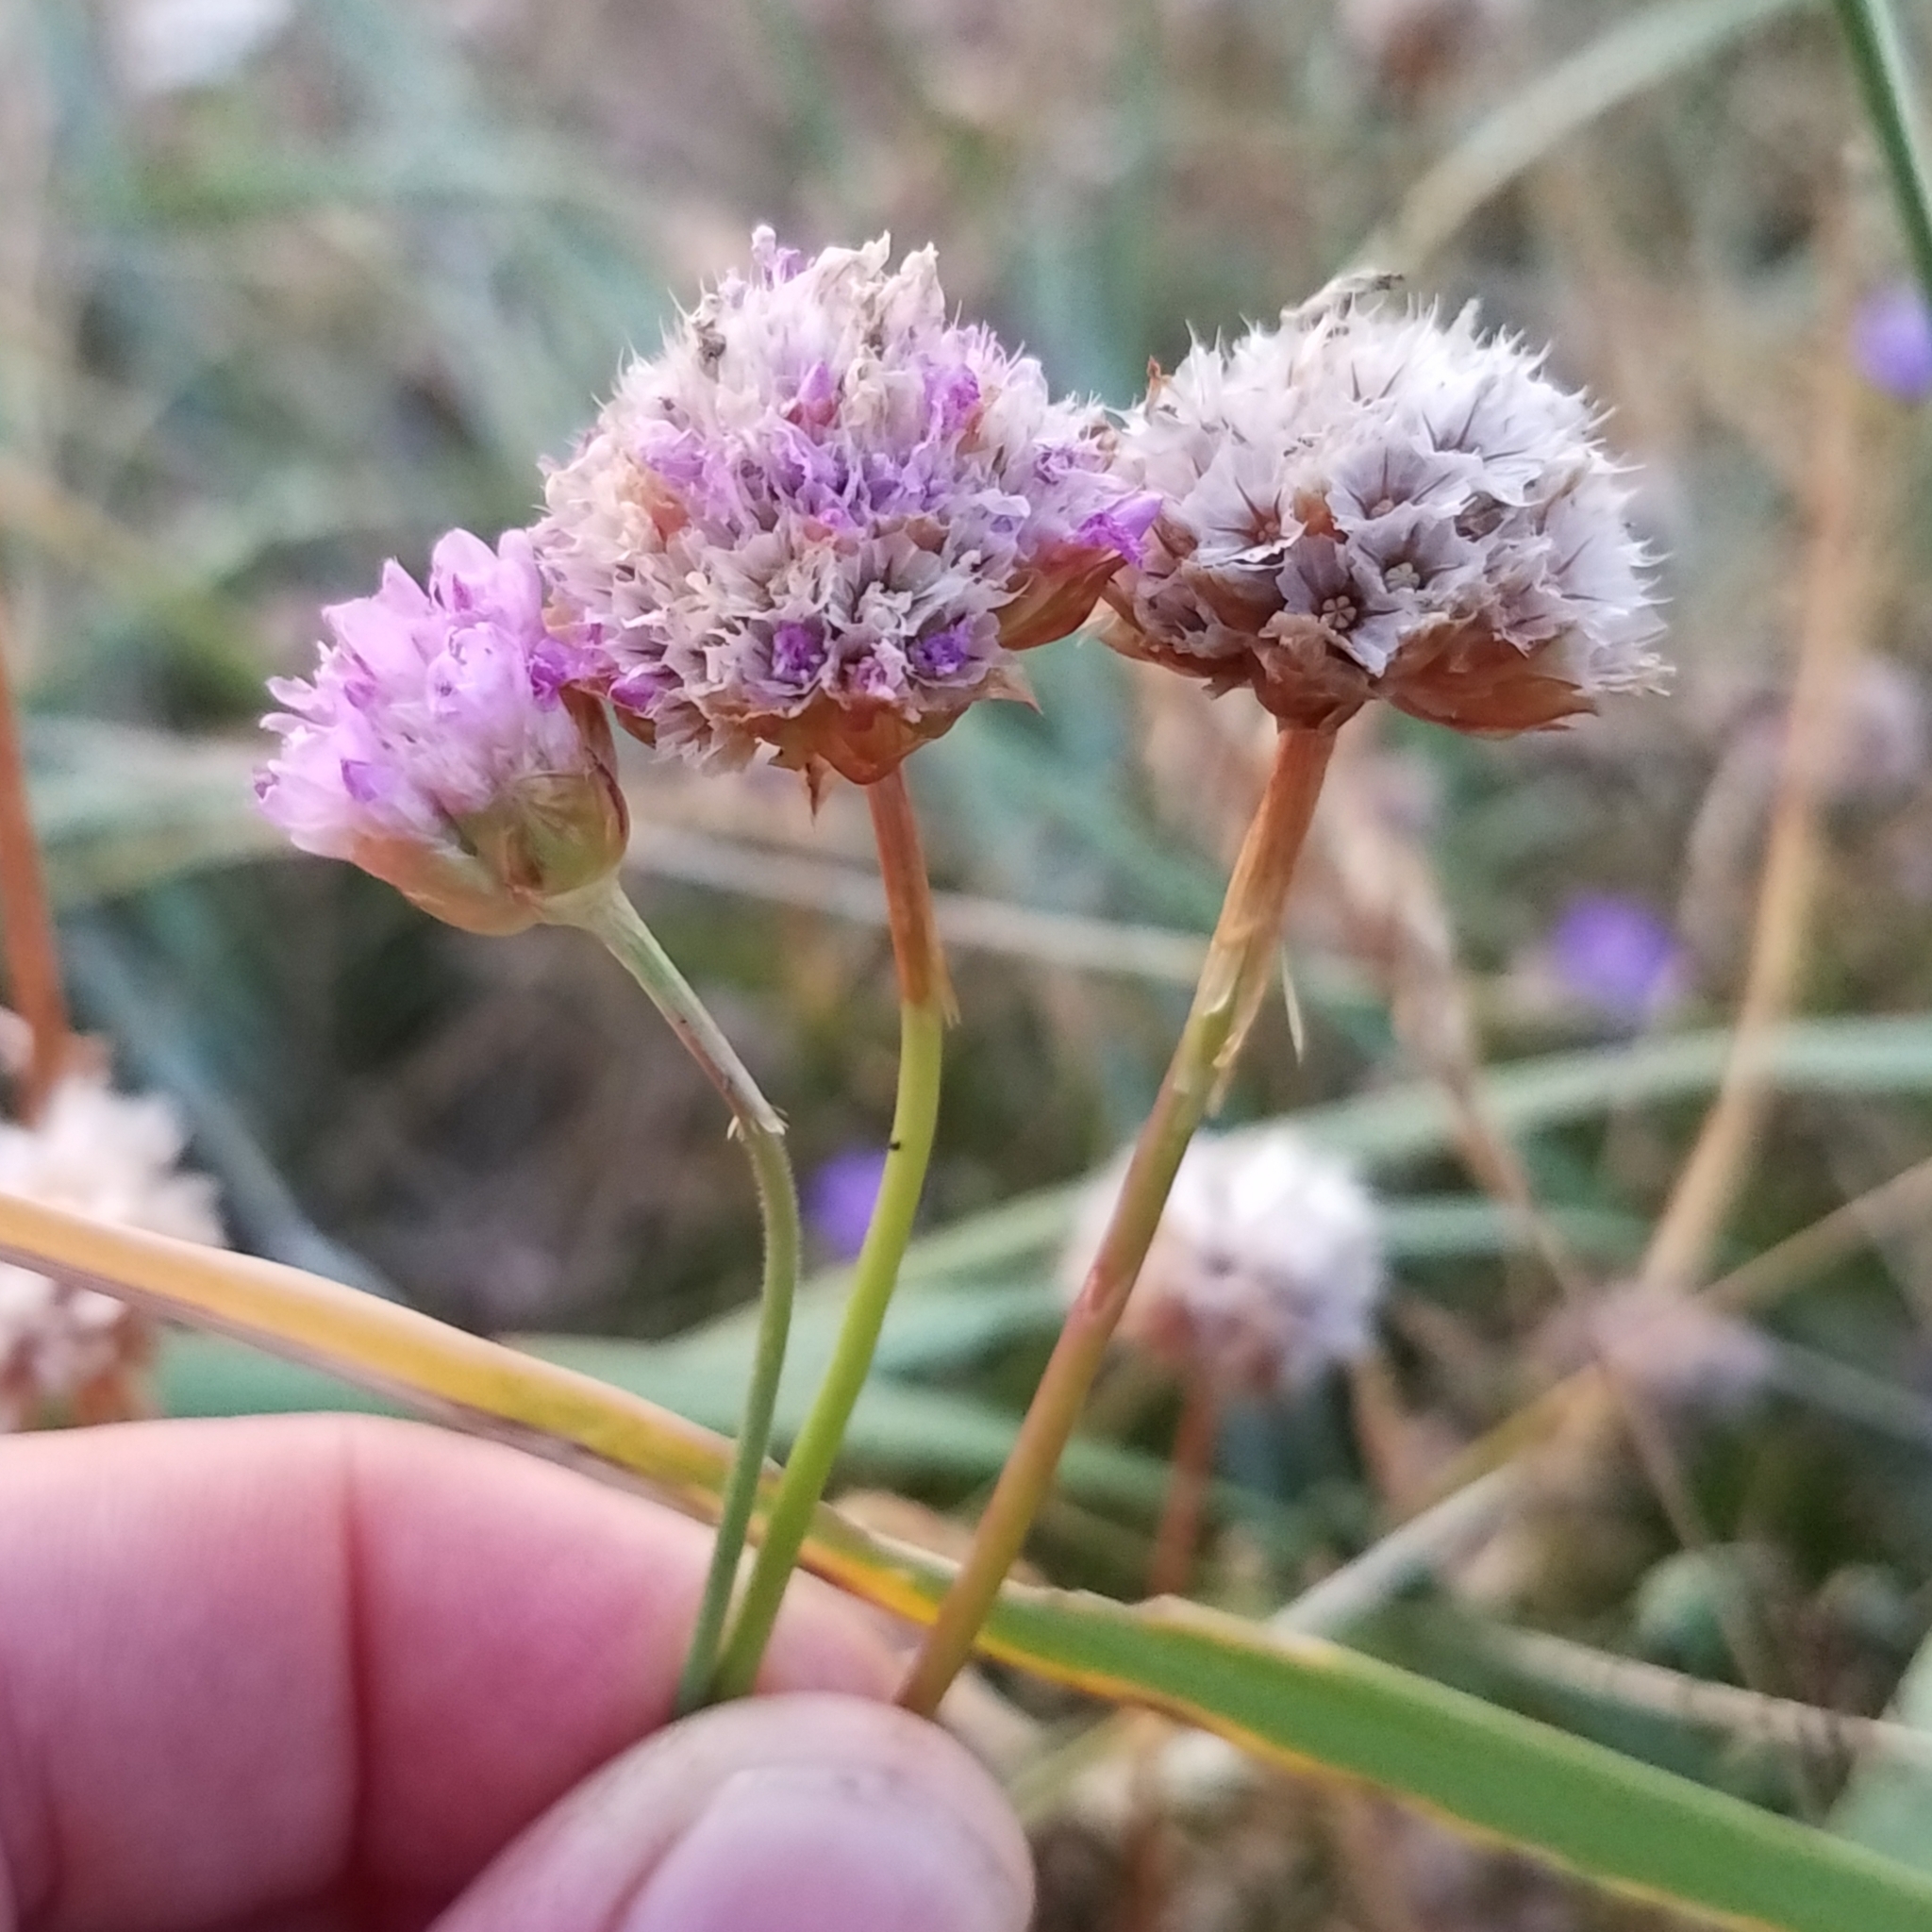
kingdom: Plantae
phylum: Tracheophyta
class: Magnoliopsida
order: Caryophyllales
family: Plumbaginaceae
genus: Armeria
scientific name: Armeria maritima
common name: Thrift
